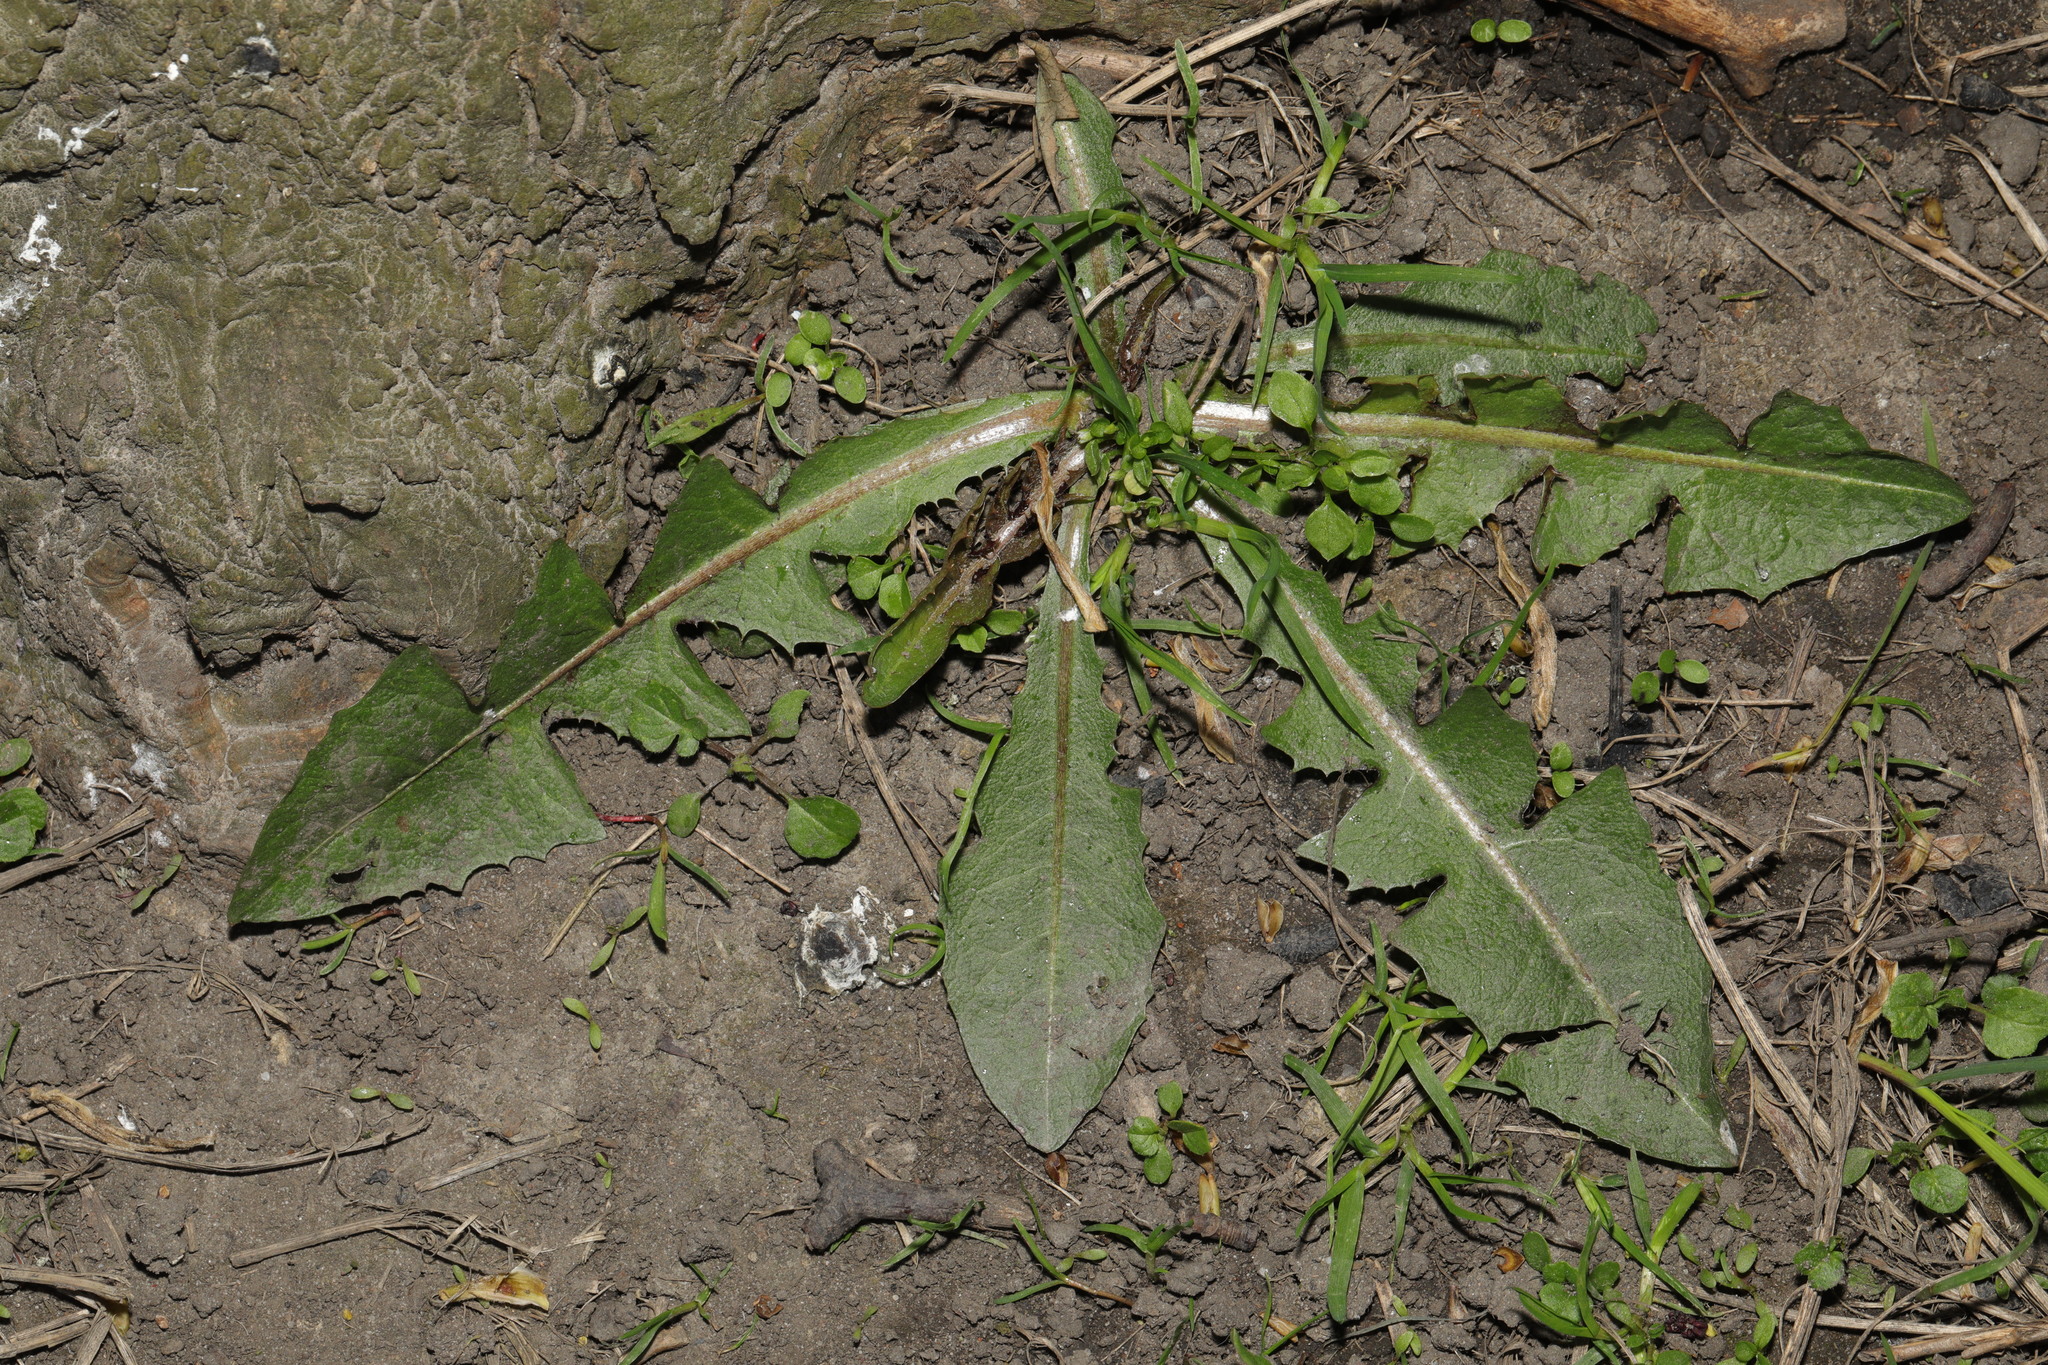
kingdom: Plantae
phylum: Tracheophyta
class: Magnoliopsida
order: Asterales
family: Asteraceae
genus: Taraxacum
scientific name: Taraxacum officinale
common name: Common dandelion
